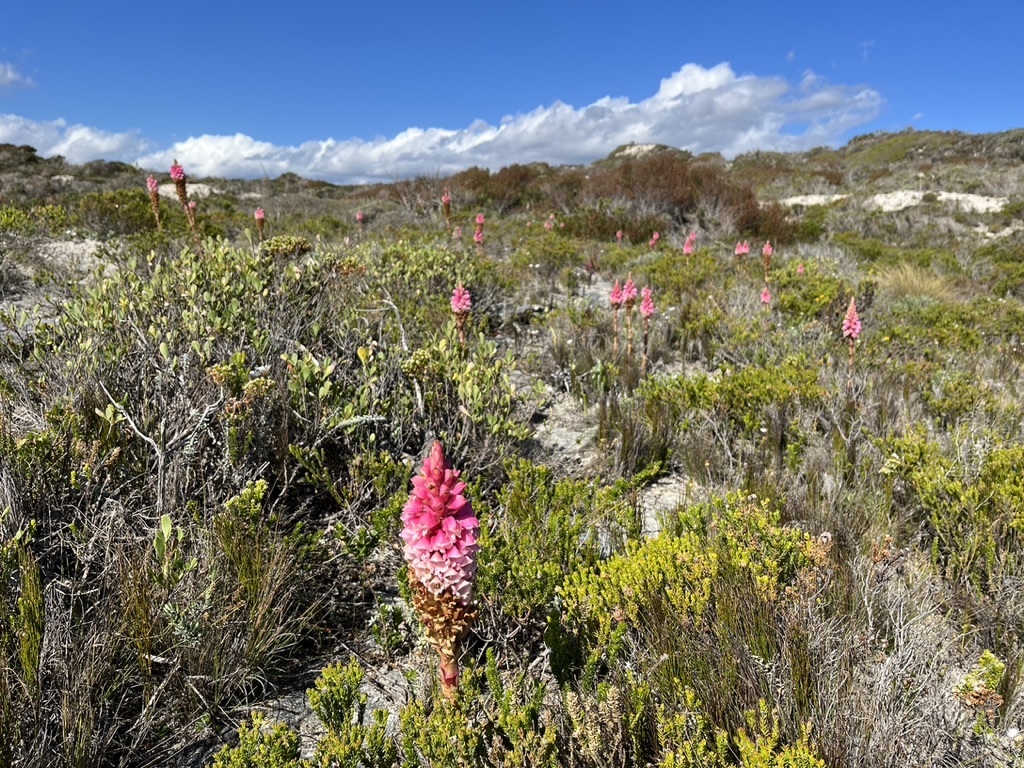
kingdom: Plantae
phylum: Tracheophyta
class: Liliopsida
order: Asparagales
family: Orchidaceae
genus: Satyrium
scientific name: Satyrium carneum
